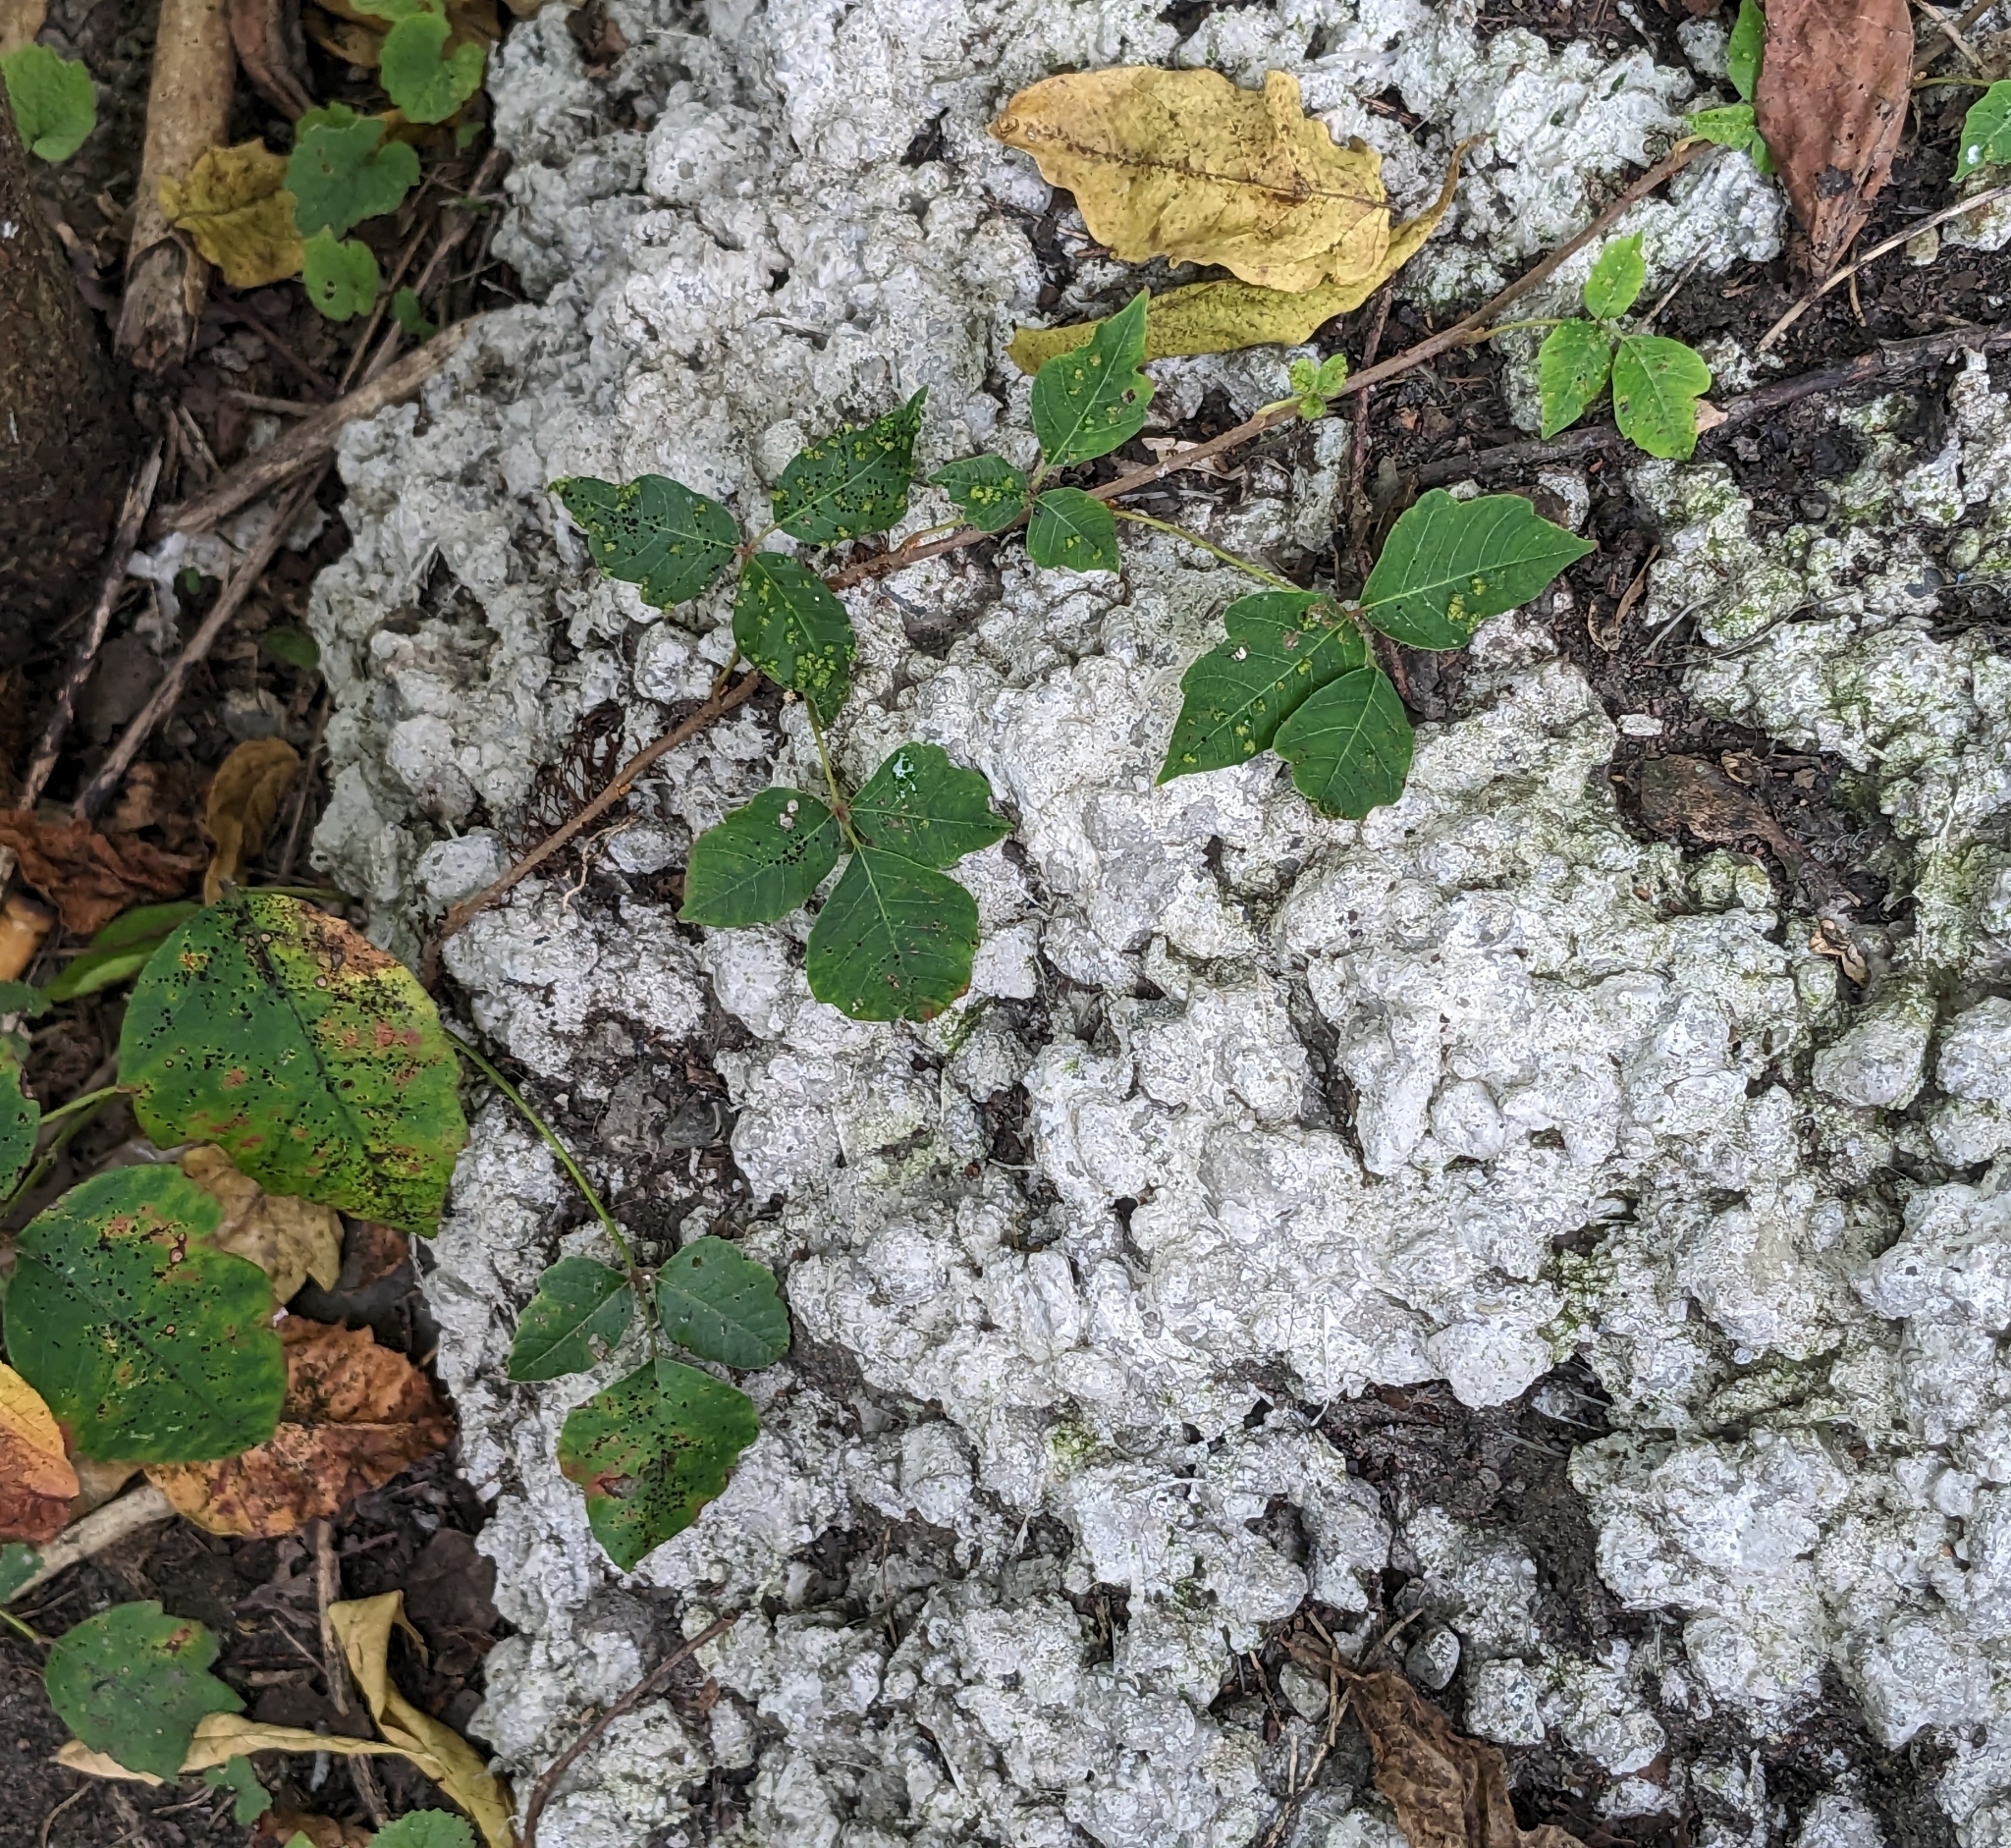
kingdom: Plantae
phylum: Tracheophyta
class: Magnoliopsida
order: Sapindales
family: Anacardiaceae
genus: Toxicodendron
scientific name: Toxicodendron radicans
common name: Poison ivy
